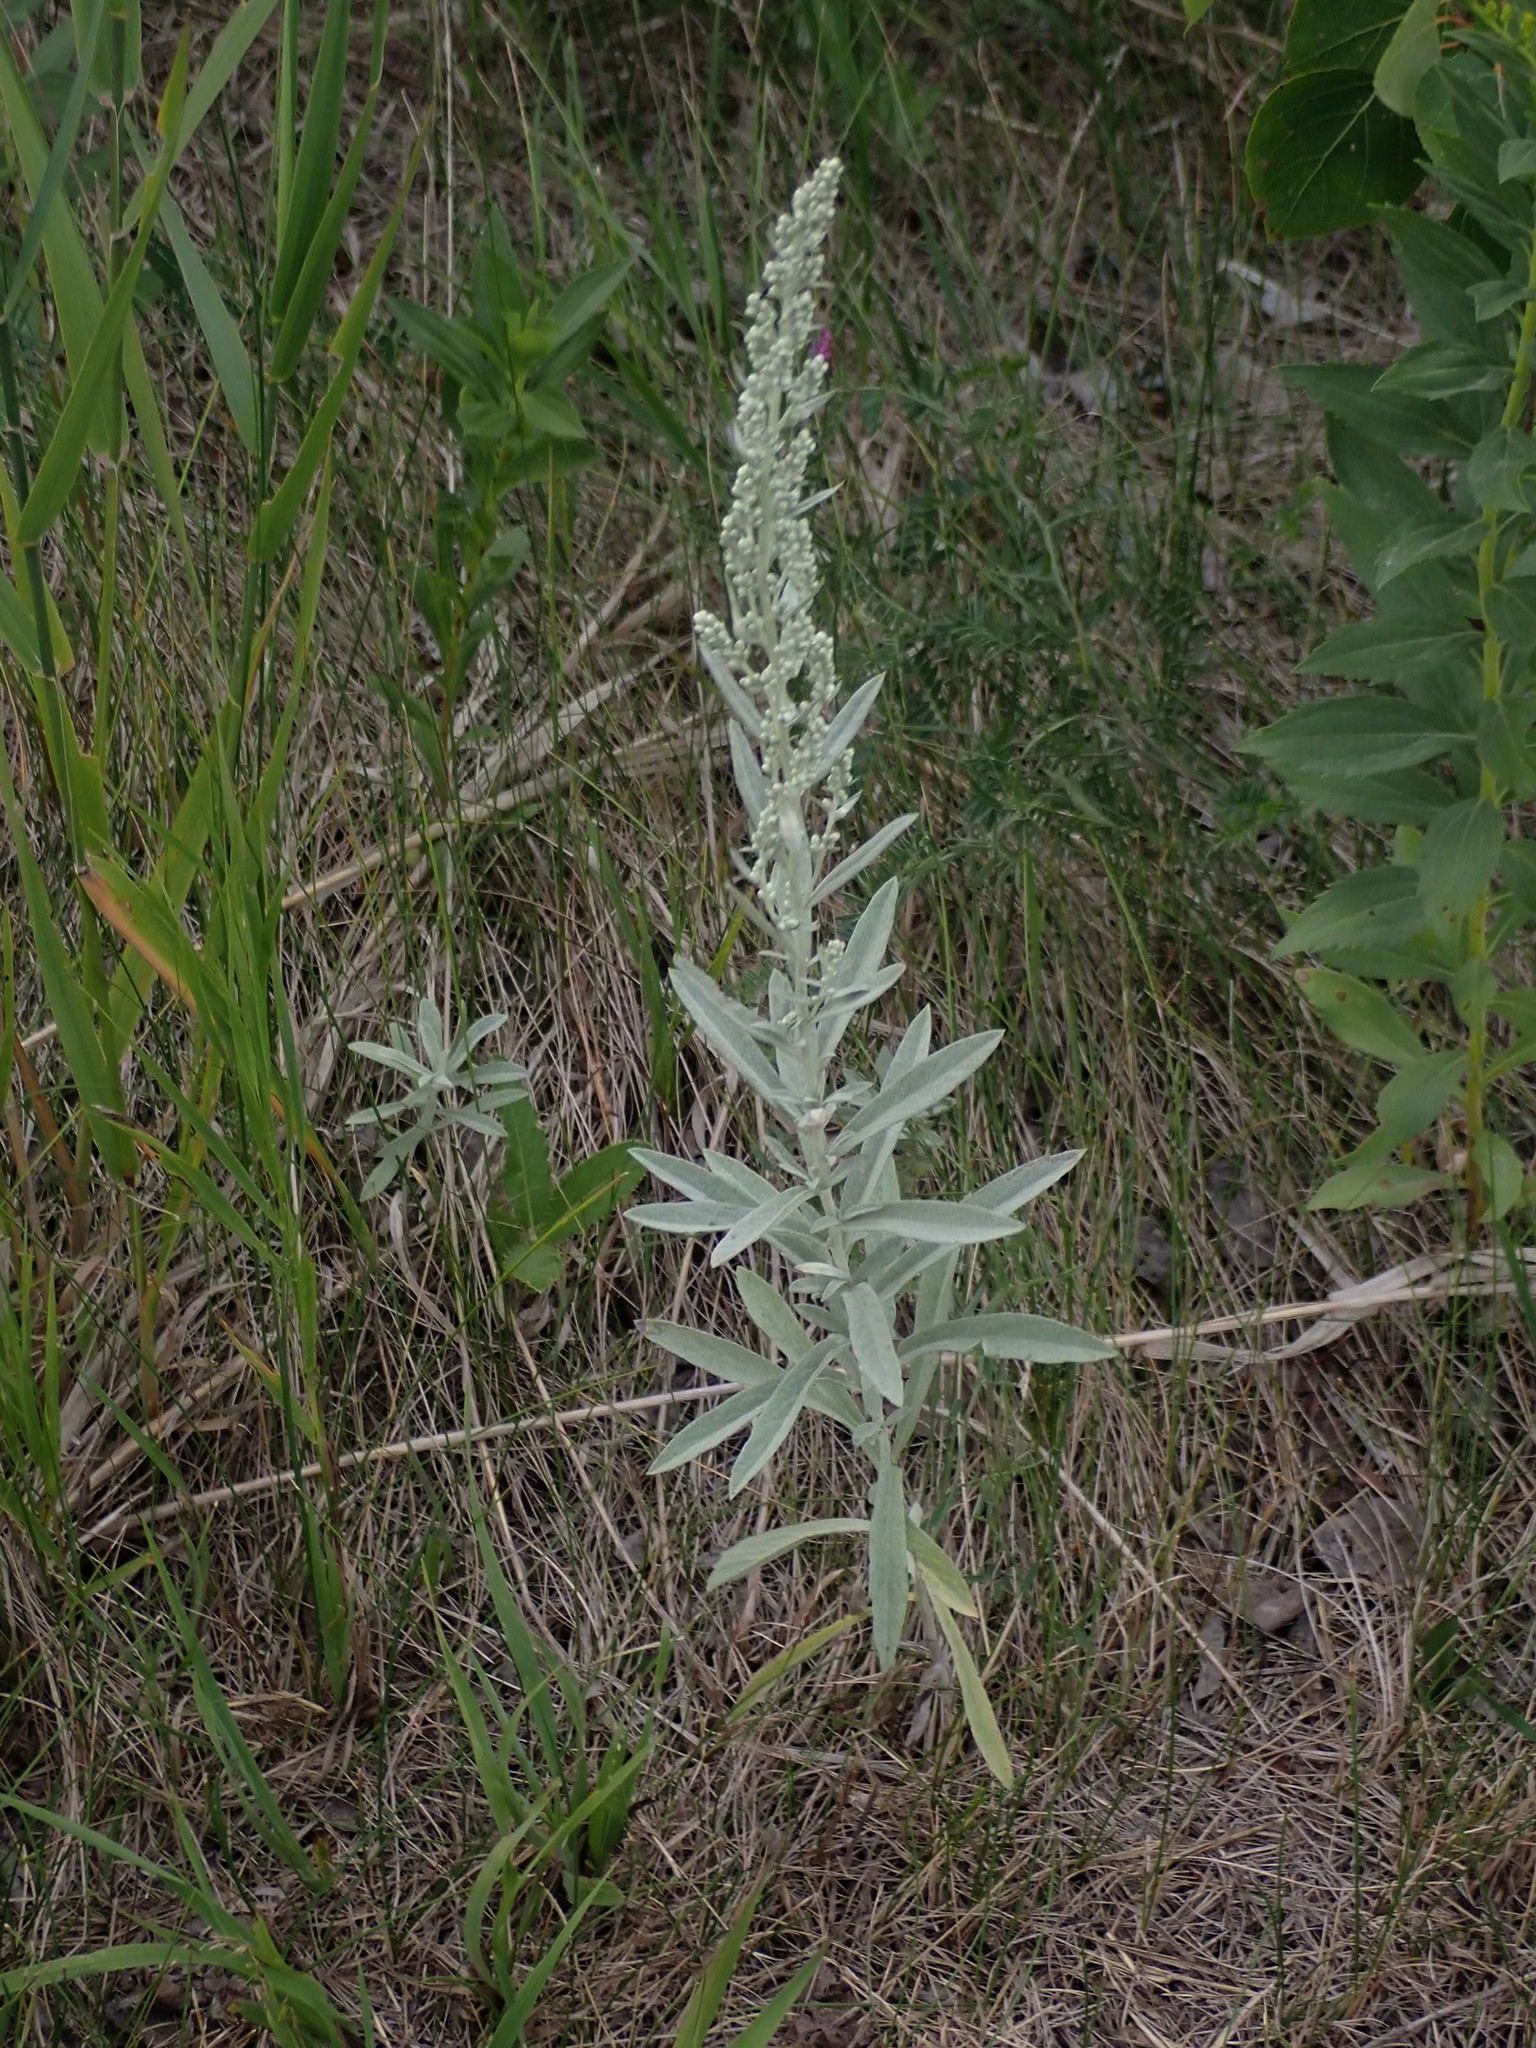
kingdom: Plantae
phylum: Tracheophyta
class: Magnoliopsida
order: Asterales
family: Asteraceae
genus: Artemisia
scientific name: Artemisia ludoviciana
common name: Western mugwort
